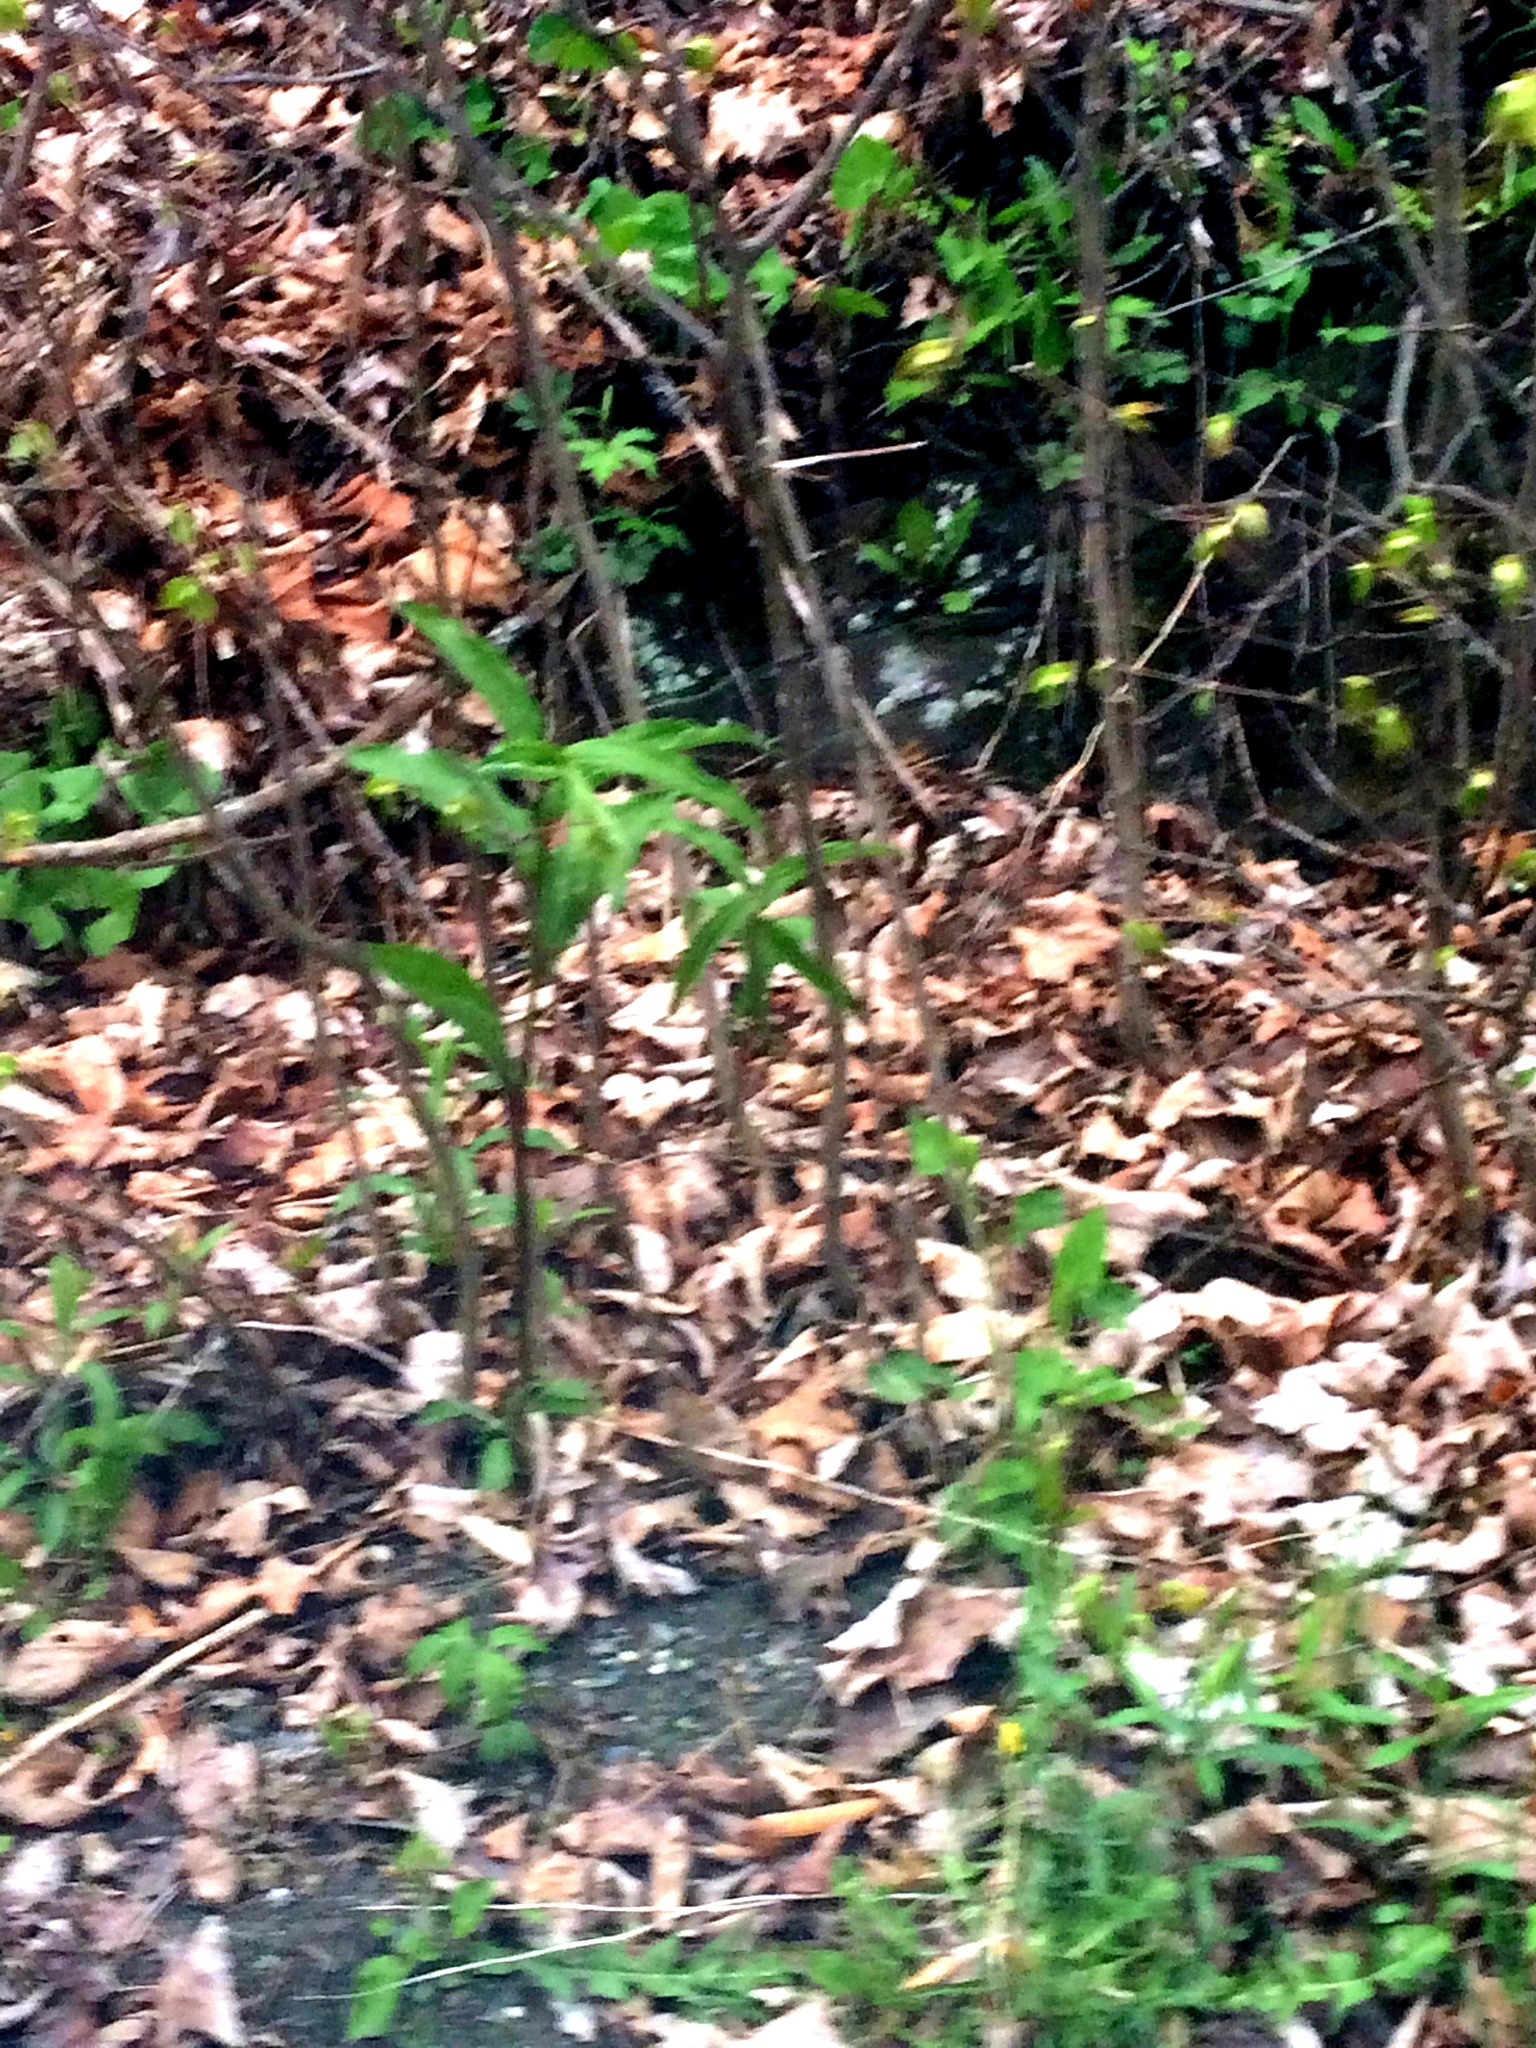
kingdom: Plantae
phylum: Tracheophyta
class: Liliopsida
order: Asparagales
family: Asparagaceae
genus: Maianthemum
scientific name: Maianthemum racemosum
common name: False spikenard
